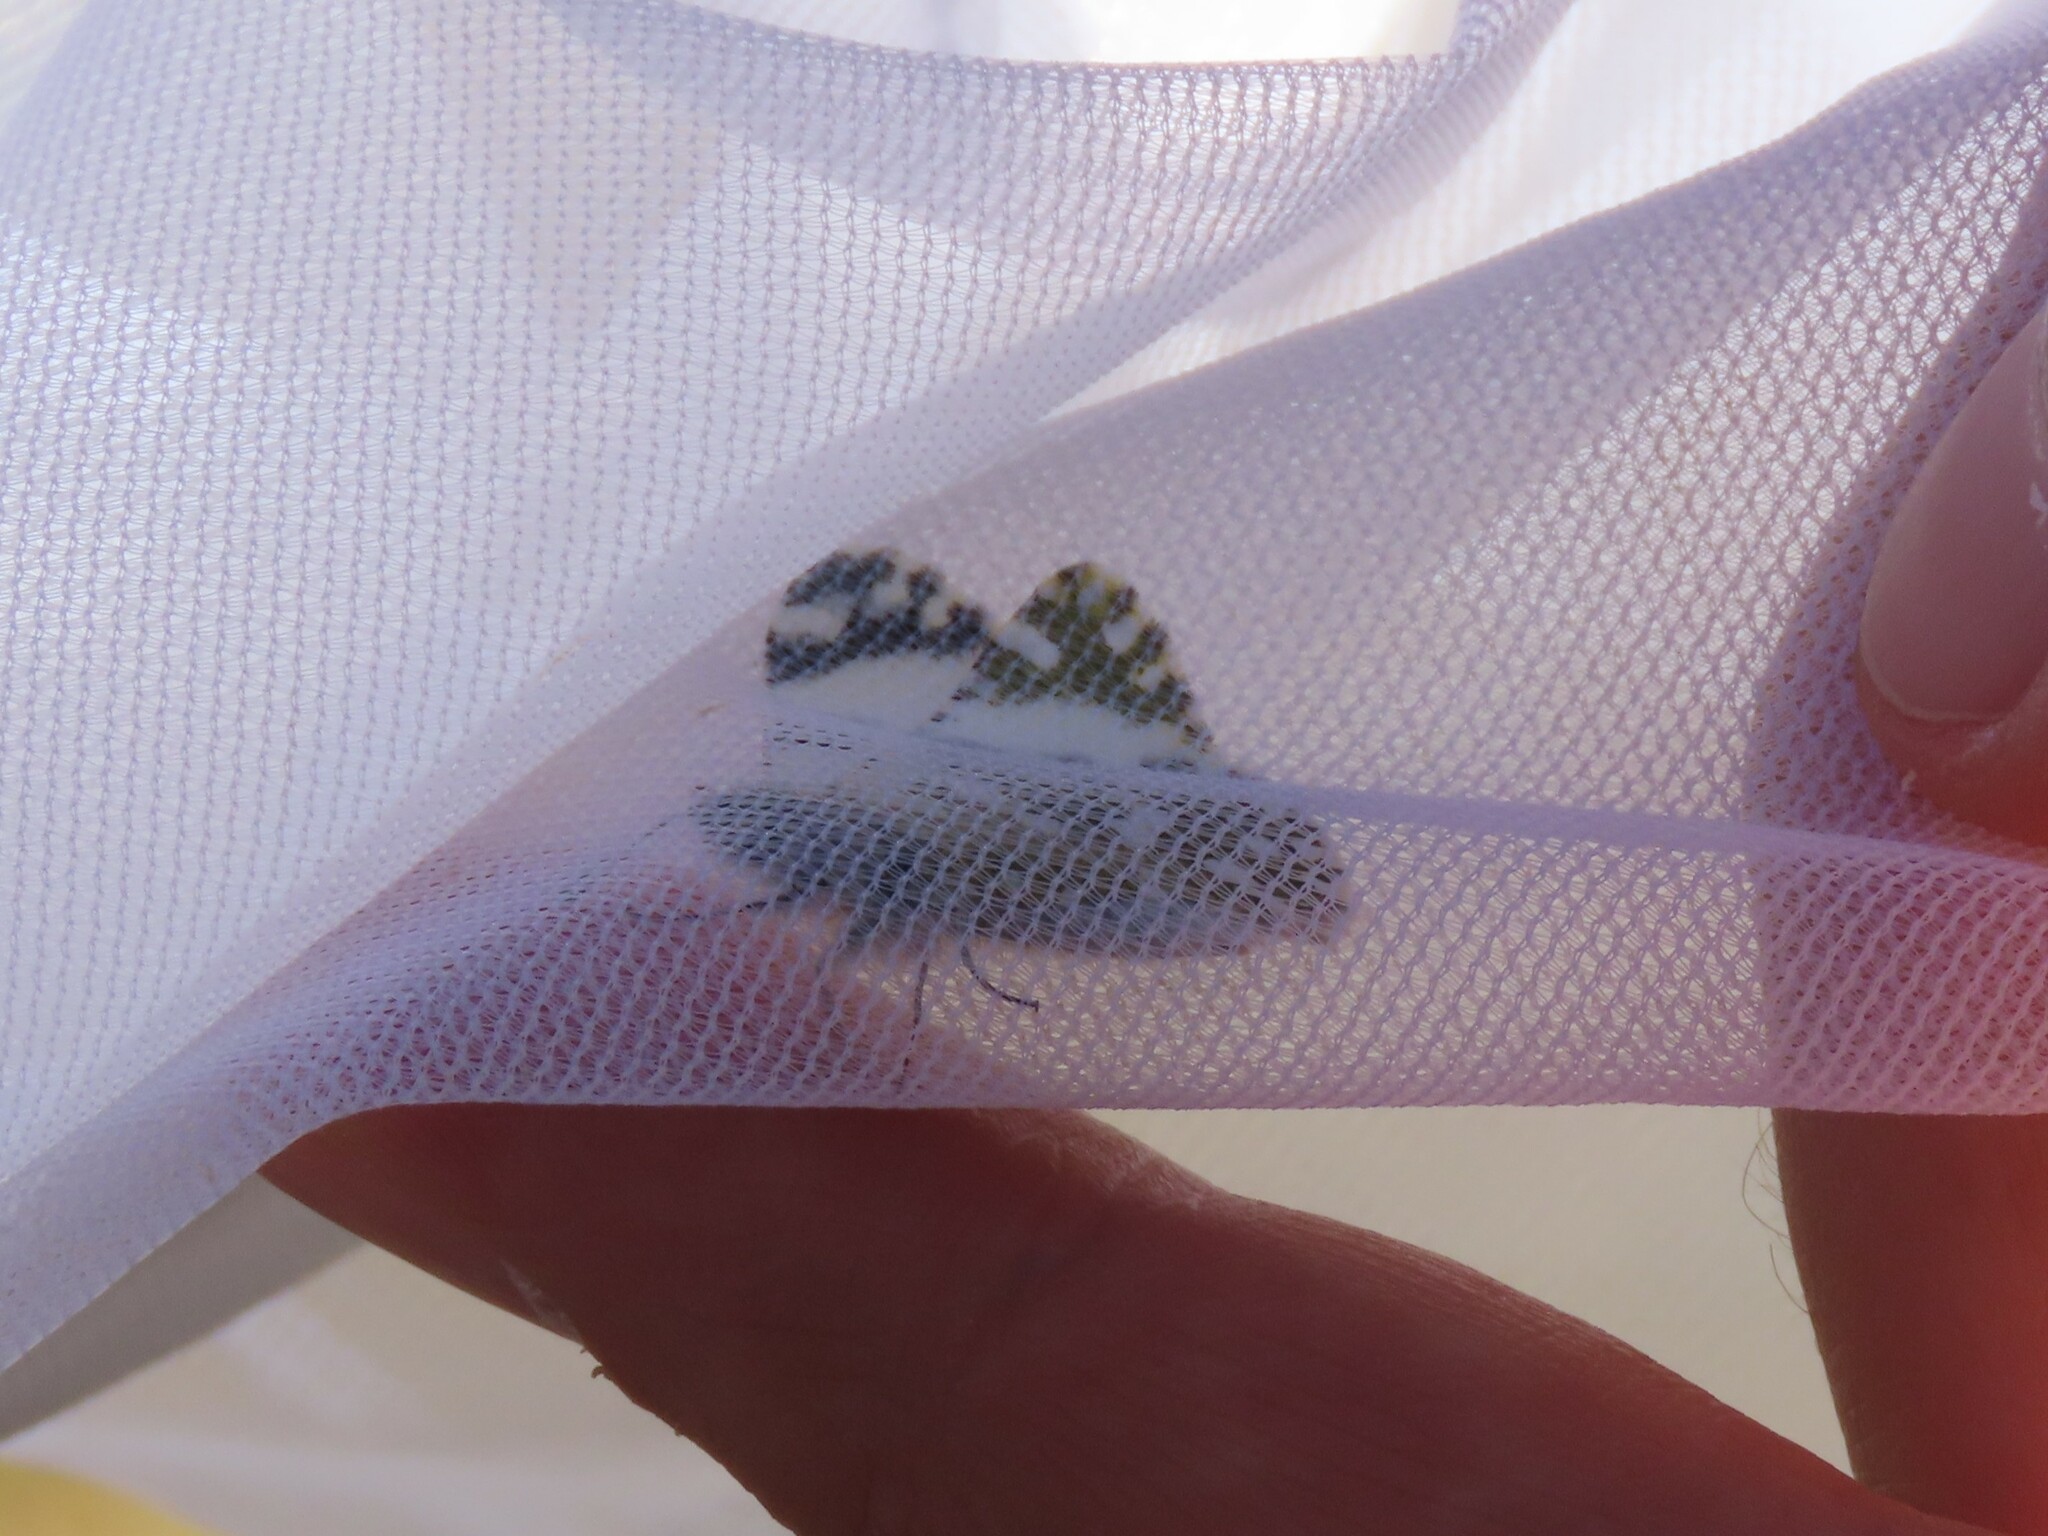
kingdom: Animalia
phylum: Arthropoda
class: Insecta
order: Lepidoptera
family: Pieridae
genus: Pontia
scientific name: Pontia daplidice
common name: Bath white
